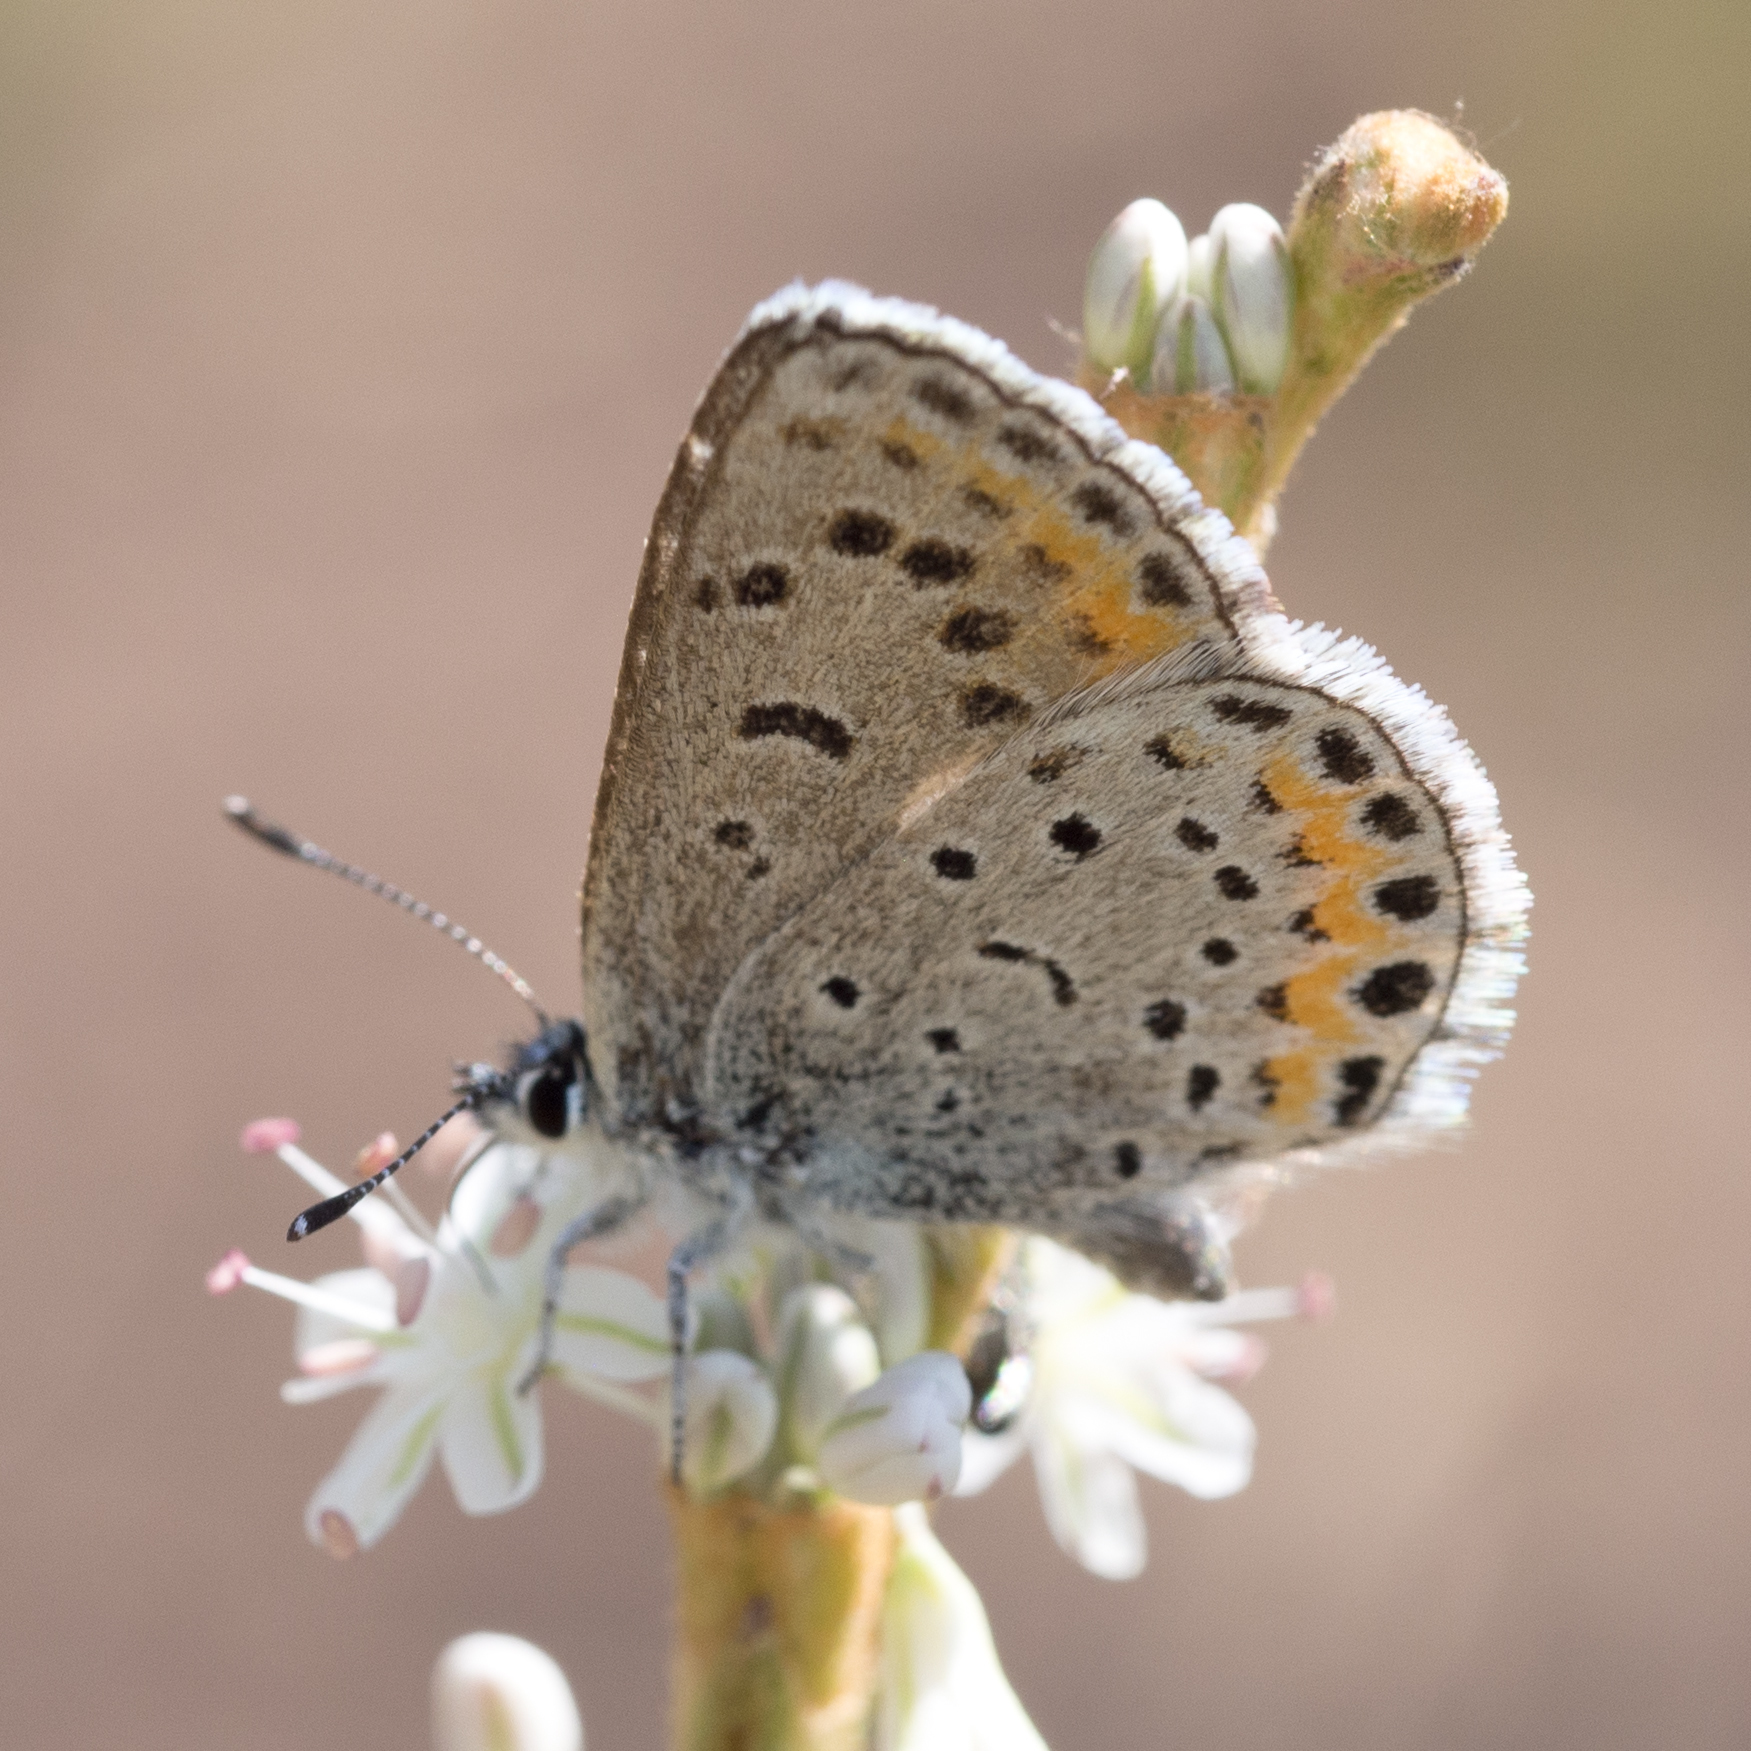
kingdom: Animalia
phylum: Arthropoda
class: Insecta
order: Lepidoptera
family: Lycaenidae
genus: Euphilotes
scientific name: Euphilotes spaldingi
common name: Spalding's blue
